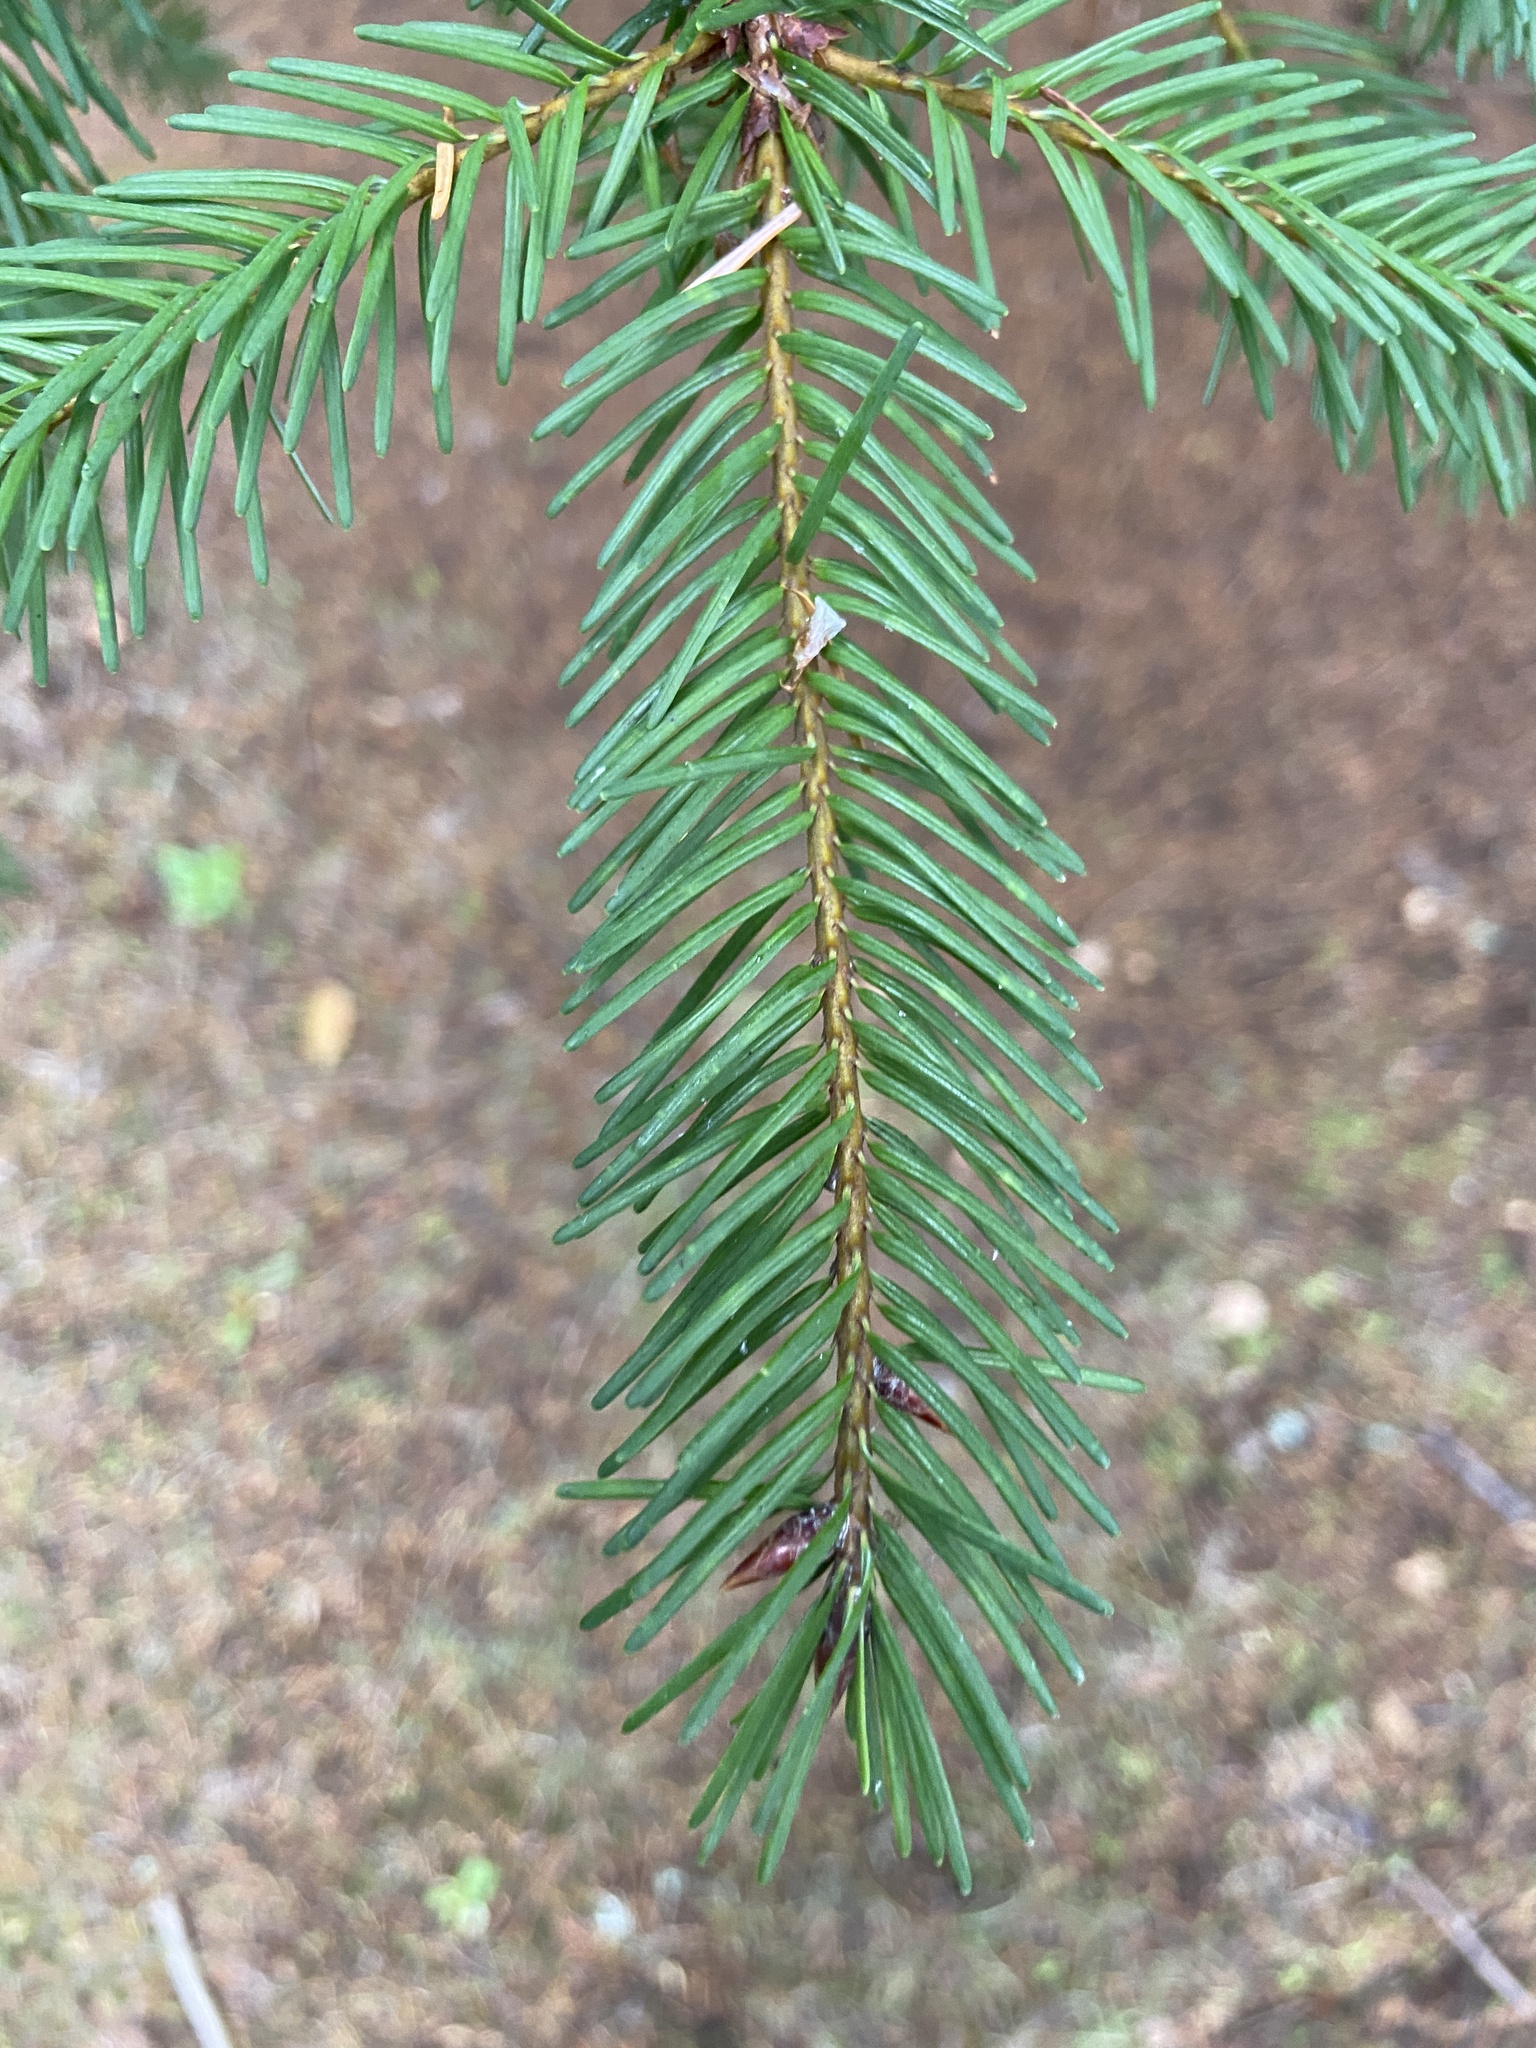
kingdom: Plantae
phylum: Tracheophyta
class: Pinopsida
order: Pinales
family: Pinaceae
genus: Pseudotsuga
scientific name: Pseudotsuga menziesii
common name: Douglas fir
